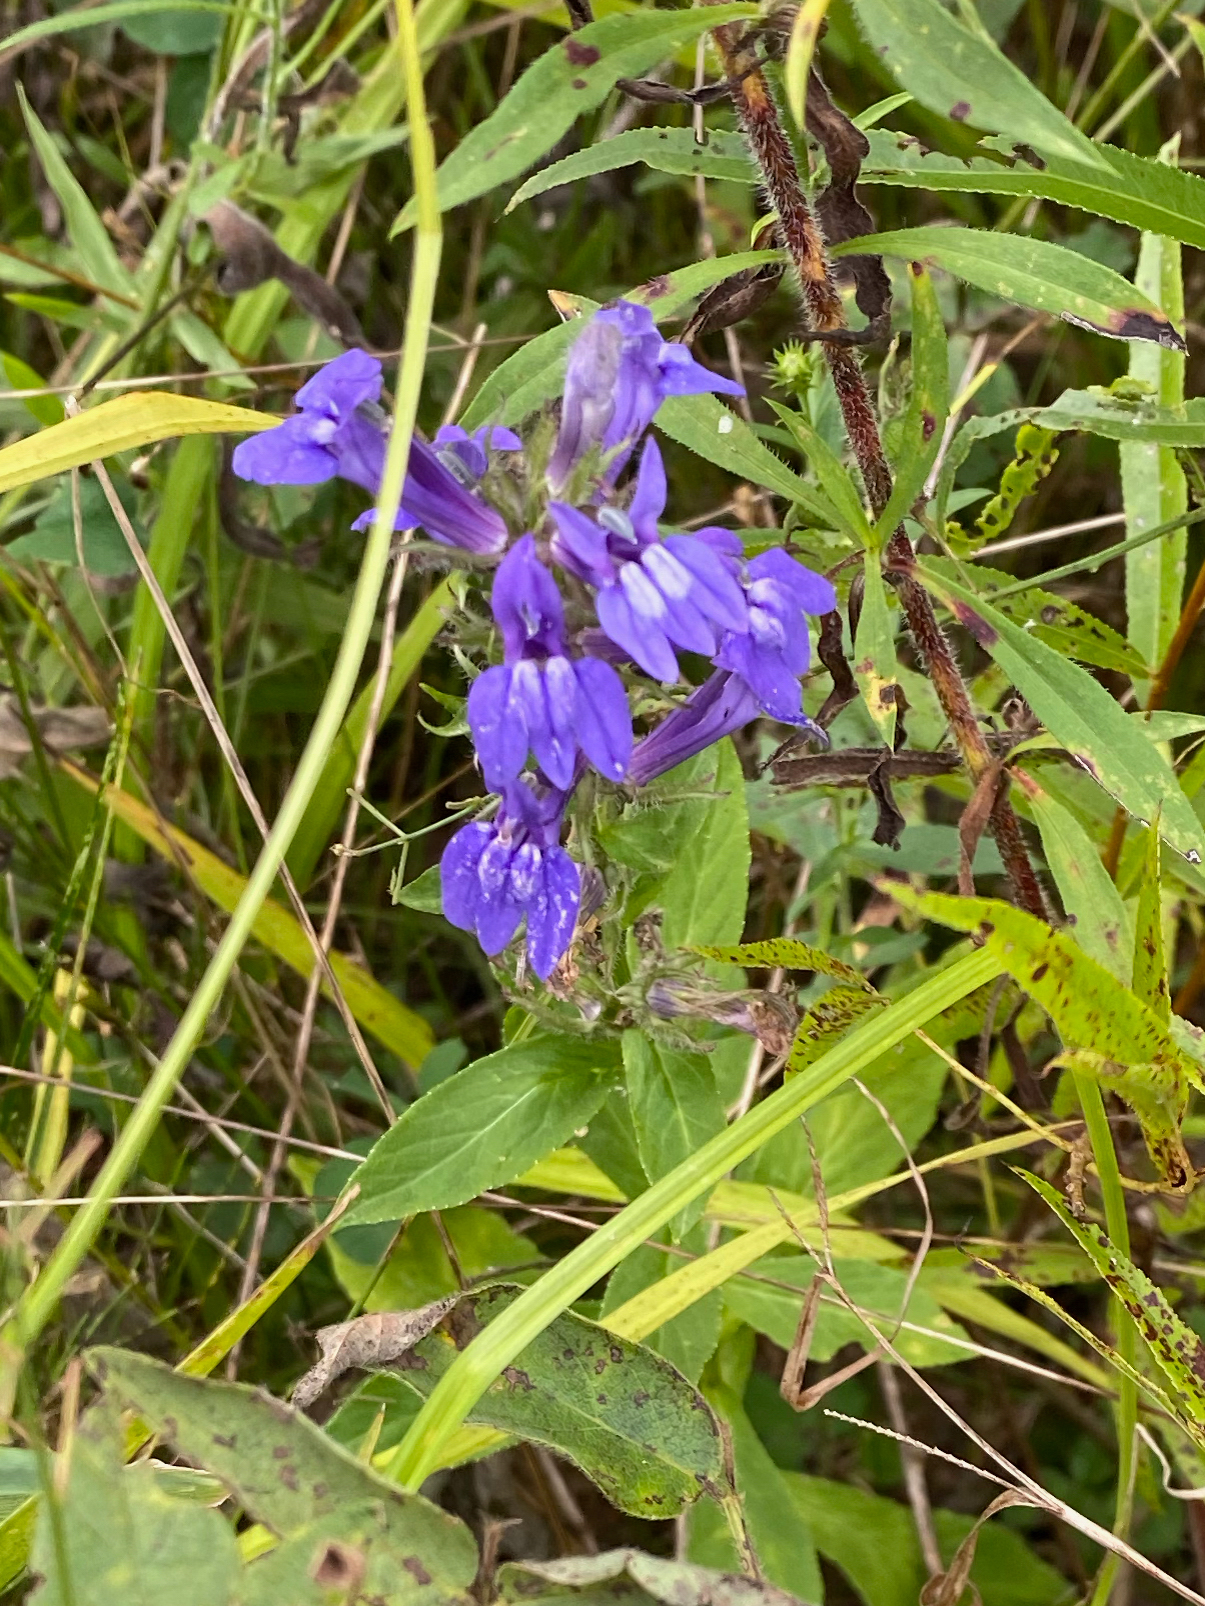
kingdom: Plantae
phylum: Tracheophyta
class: Magnoliopsida
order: Asterales
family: Campanulaceae
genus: Lobelia
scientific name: Lobelia siphilitica
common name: Great lobelia
